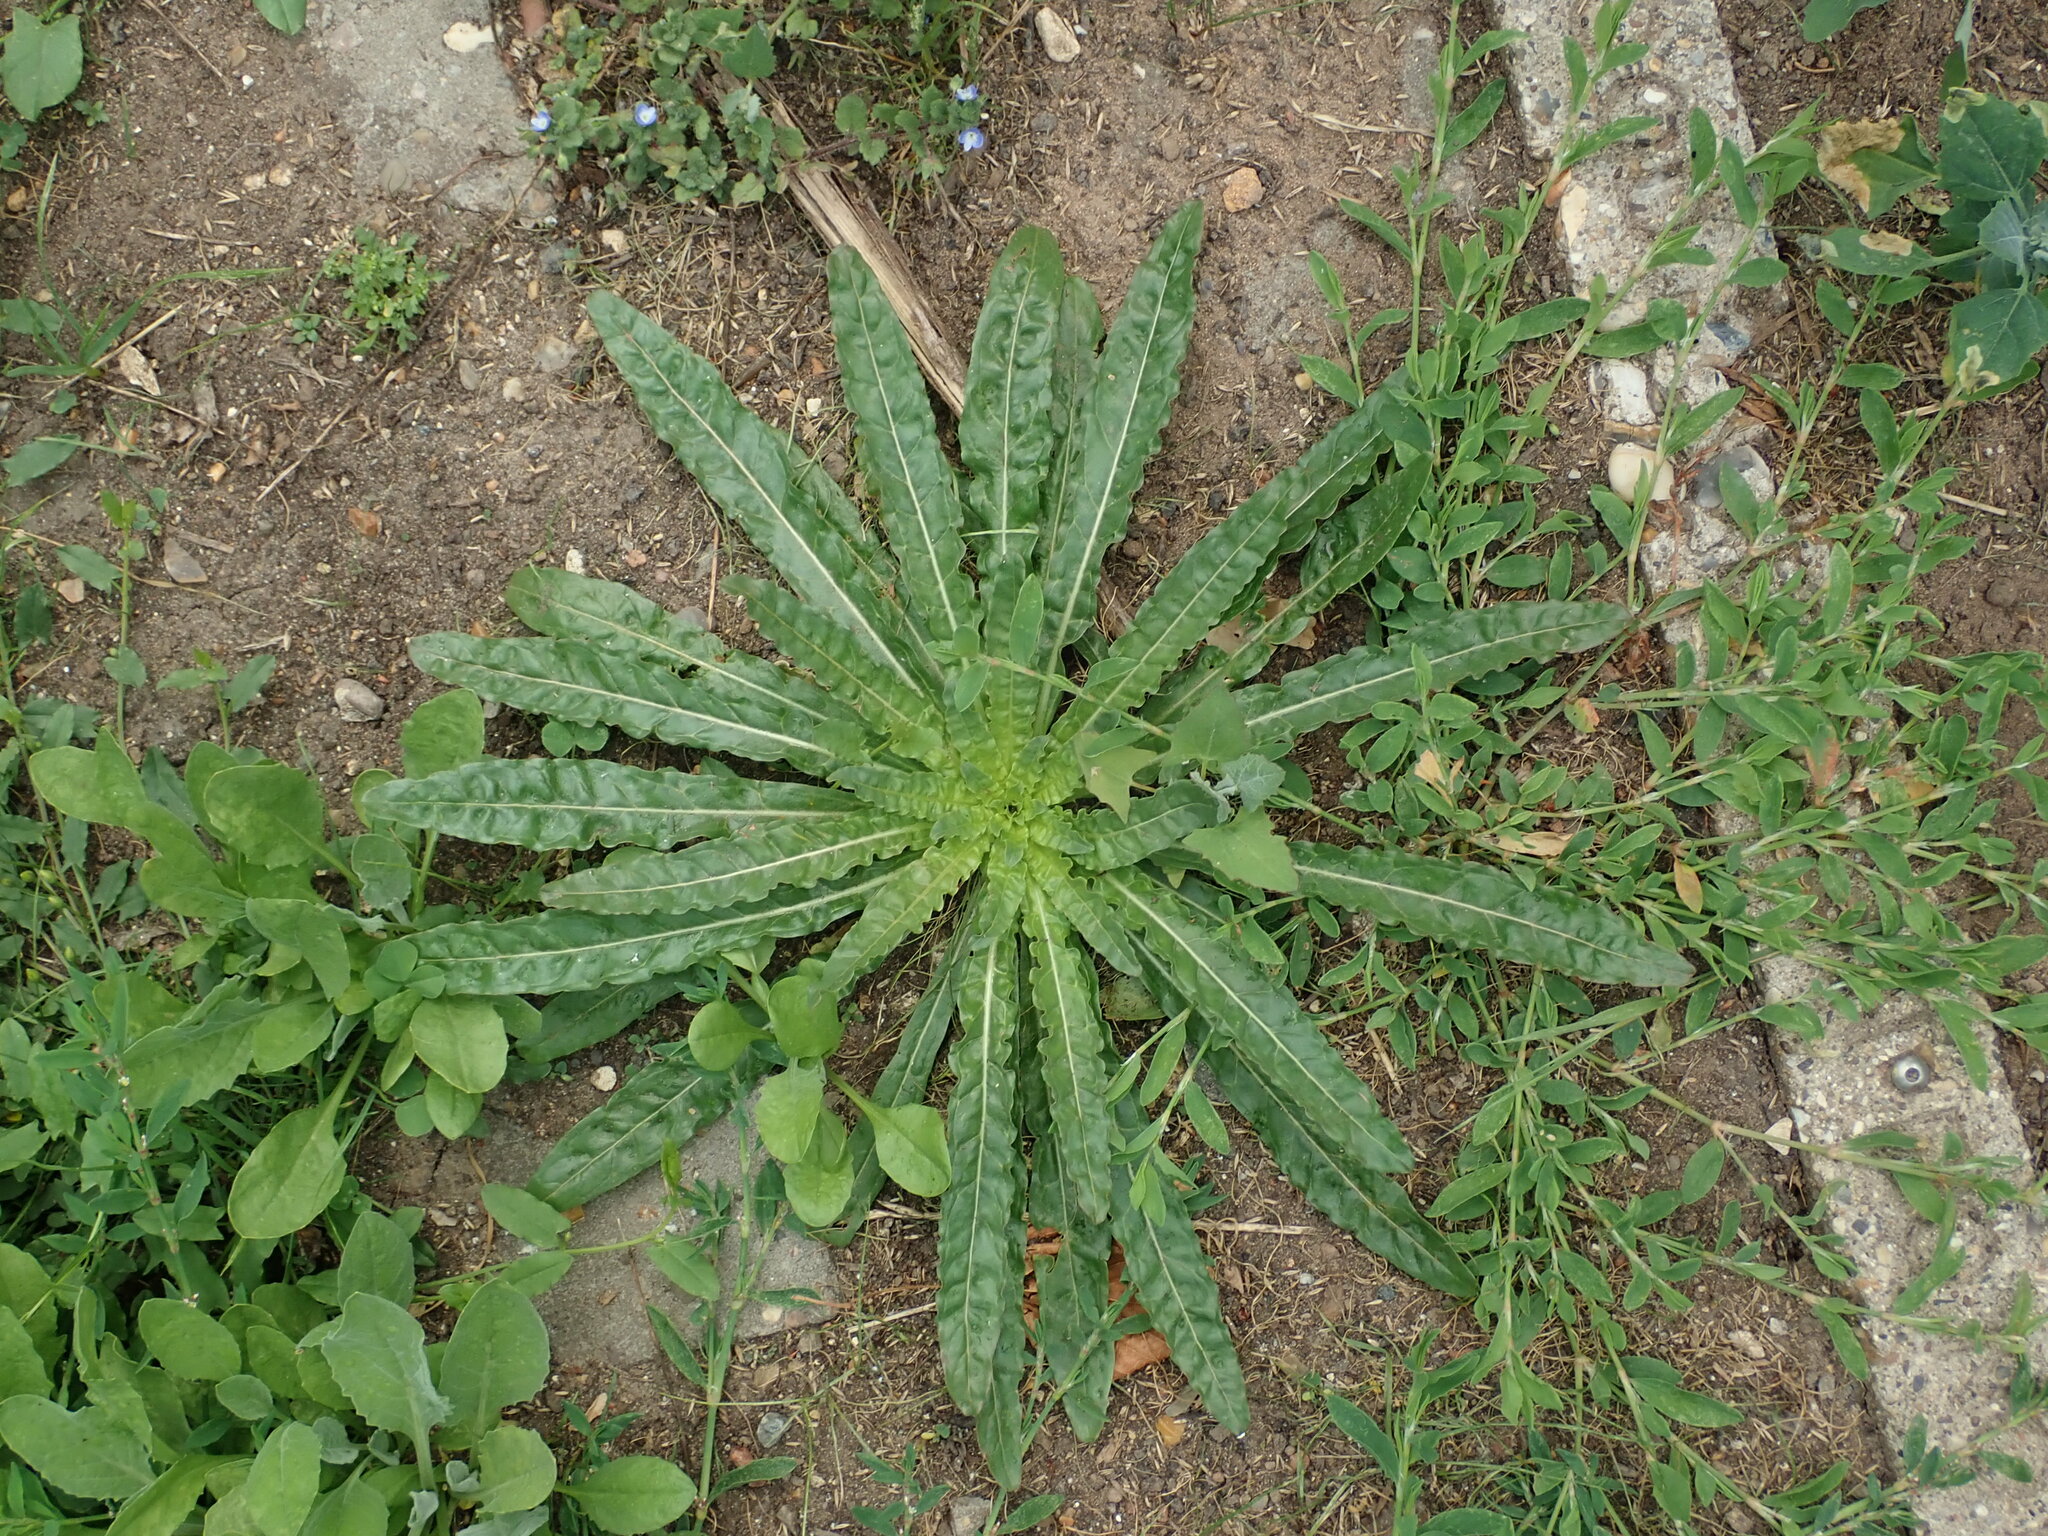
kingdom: Plantae
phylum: Tracheophyta
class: Magnoliopsida
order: Brassicales
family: Resedaceae
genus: Reseda
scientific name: Reseda luteola
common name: Weld
